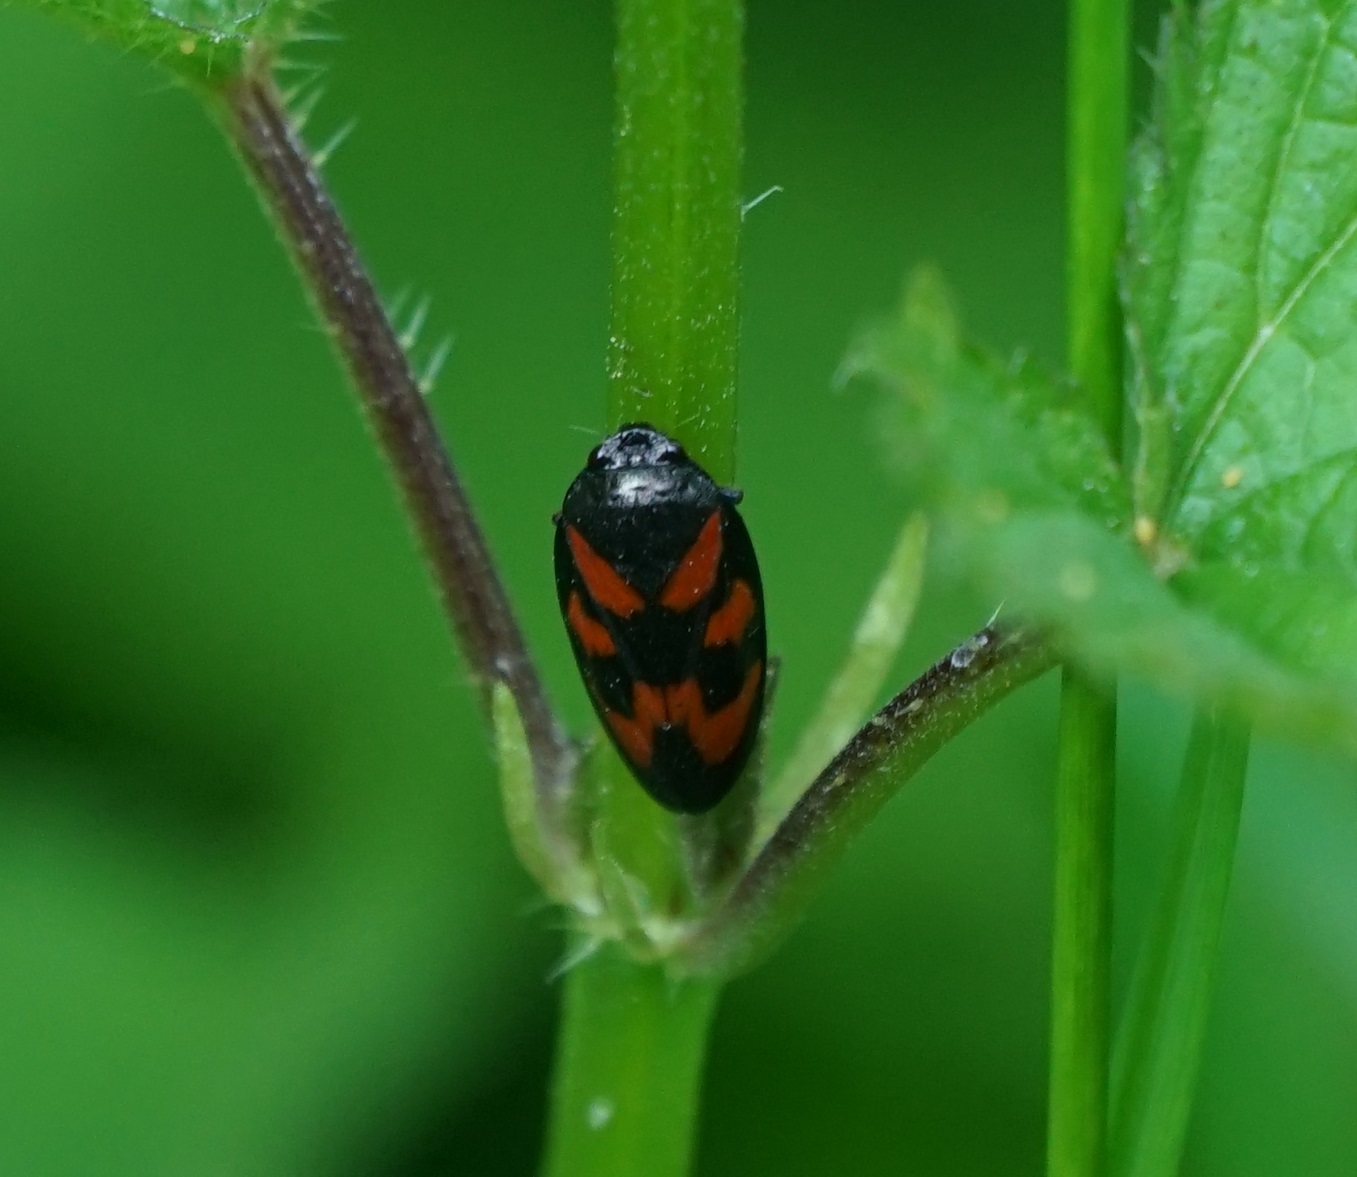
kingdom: Animalia
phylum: Arthropoda
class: Insecta
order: Hemiptera
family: Cercopidae
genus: Cercopis
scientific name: Cercopis vulnerata
